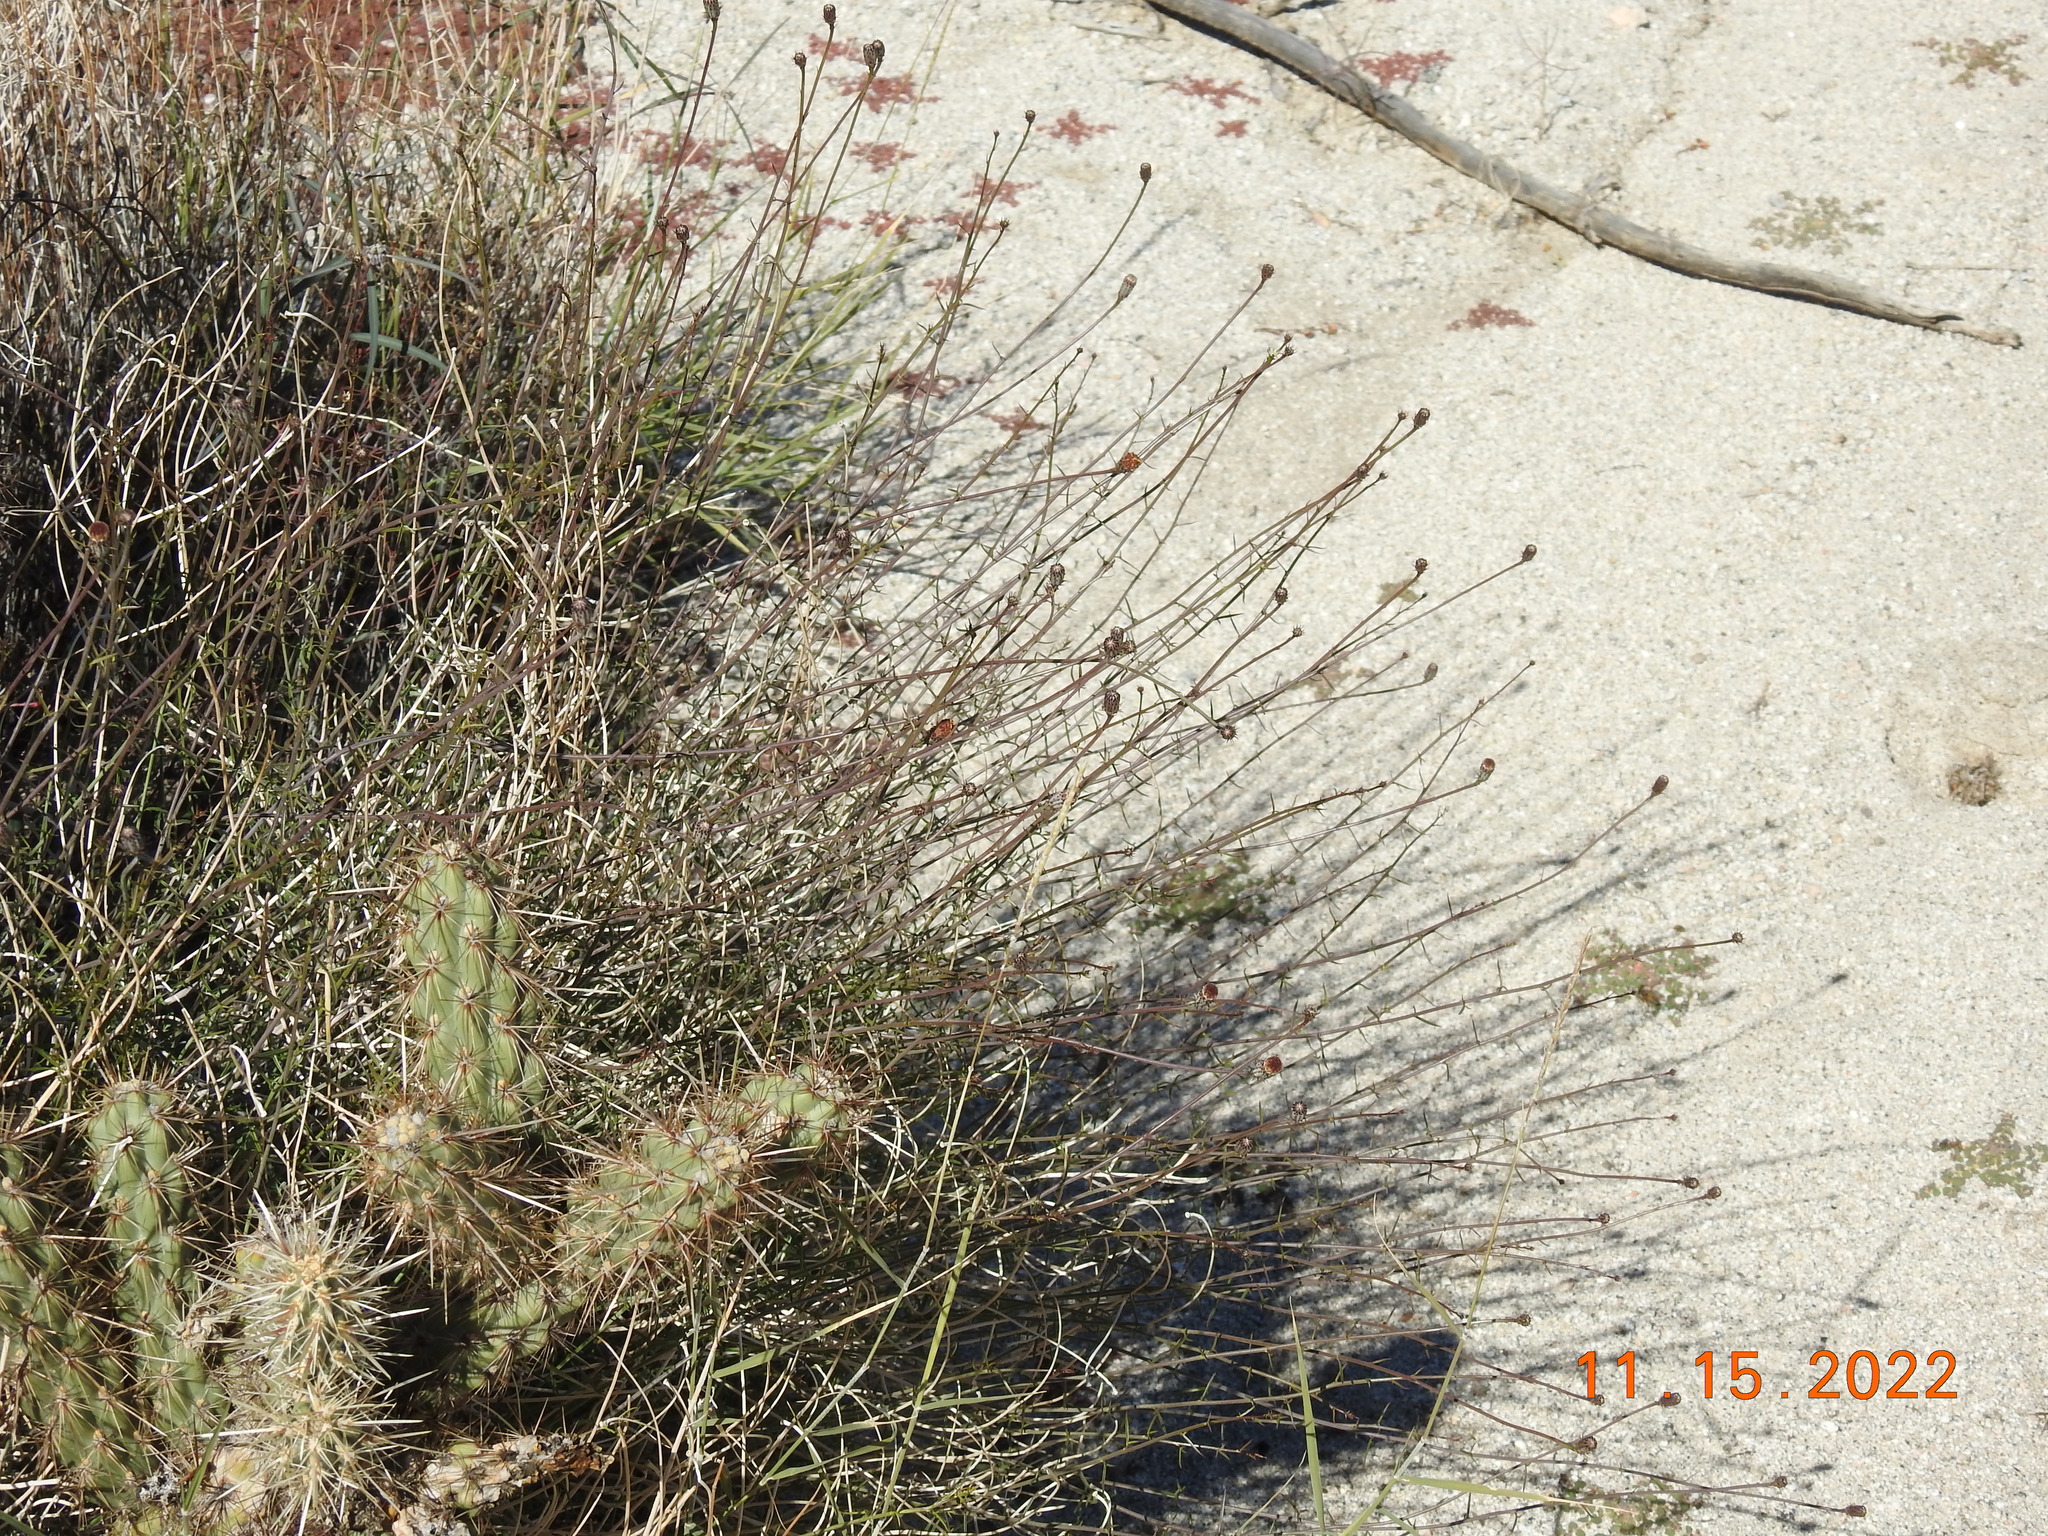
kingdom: Plantae
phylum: Tracheophyta
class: Magnoliopsida
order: Asterales
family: Asteraceae
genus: Adenophyllum
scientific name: Adenophyllum porophylloides
